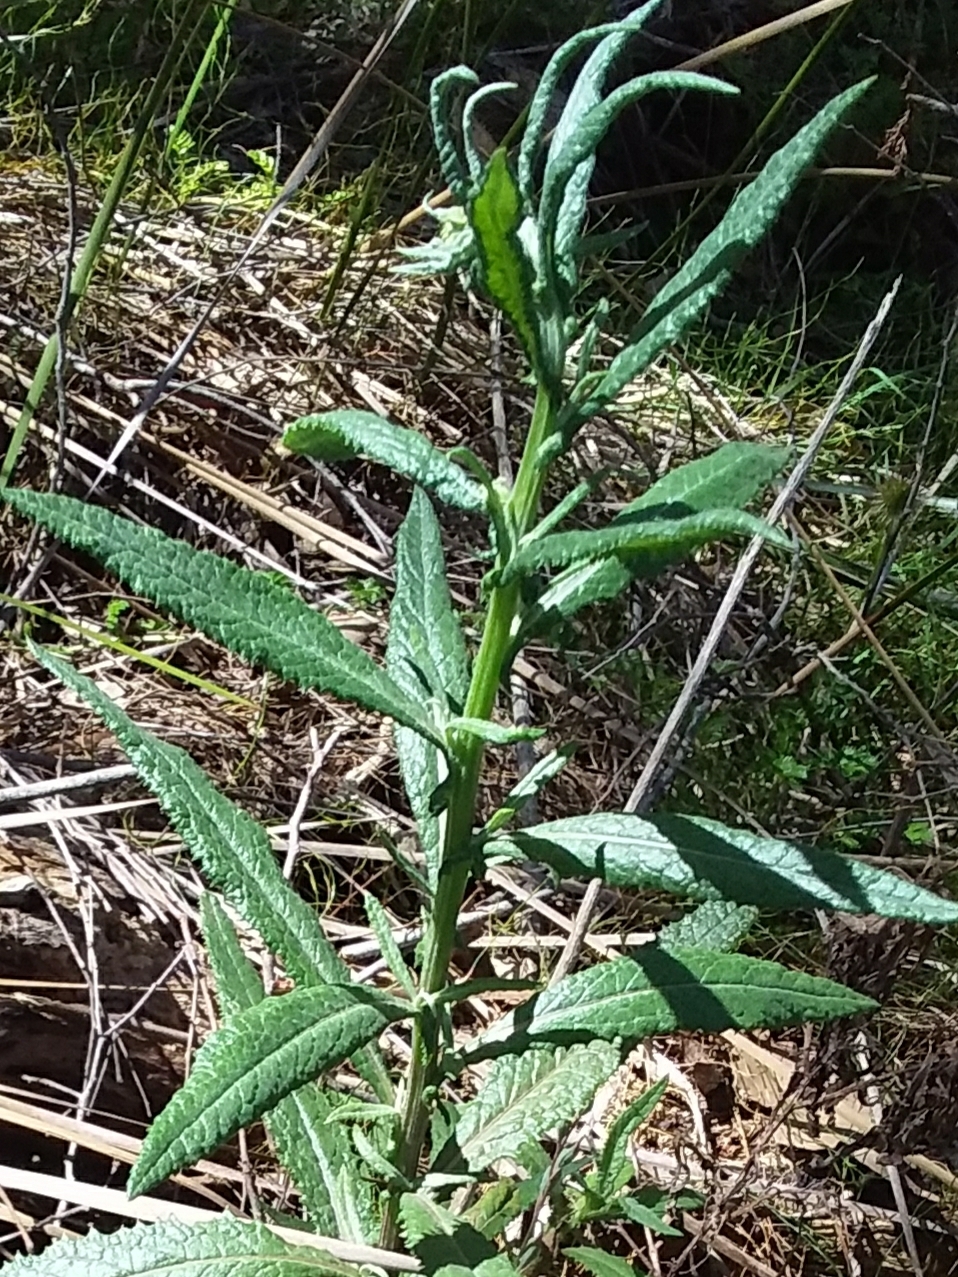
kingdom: Plantae
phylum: Tracheophyta
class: Magnoliopsida
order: Asterales
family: Asteraceae
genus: Senecio
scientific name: Senecio minimus
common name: Toothed fireweed
